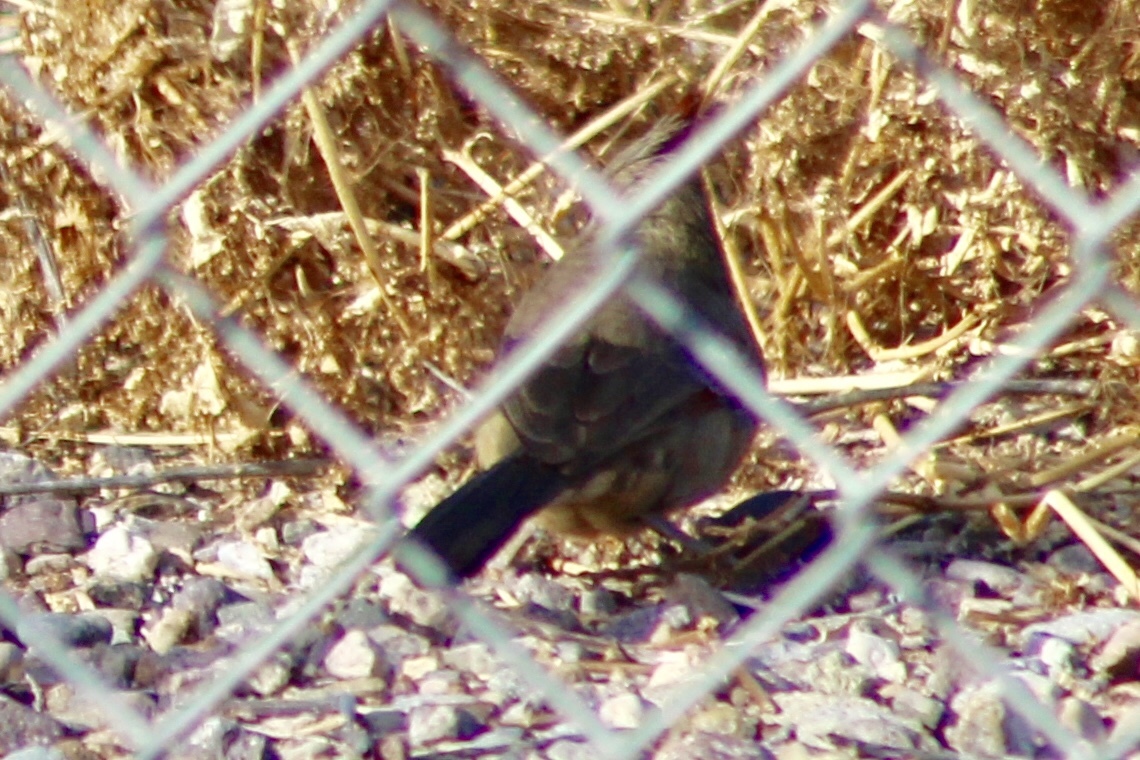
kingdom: Animalia
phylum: Chordata
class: Aves
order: Passeriformes
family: Cardinalidae
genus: Cardinalis
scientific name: Cardinalis sinuatus
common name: Pyrrhuloxia
